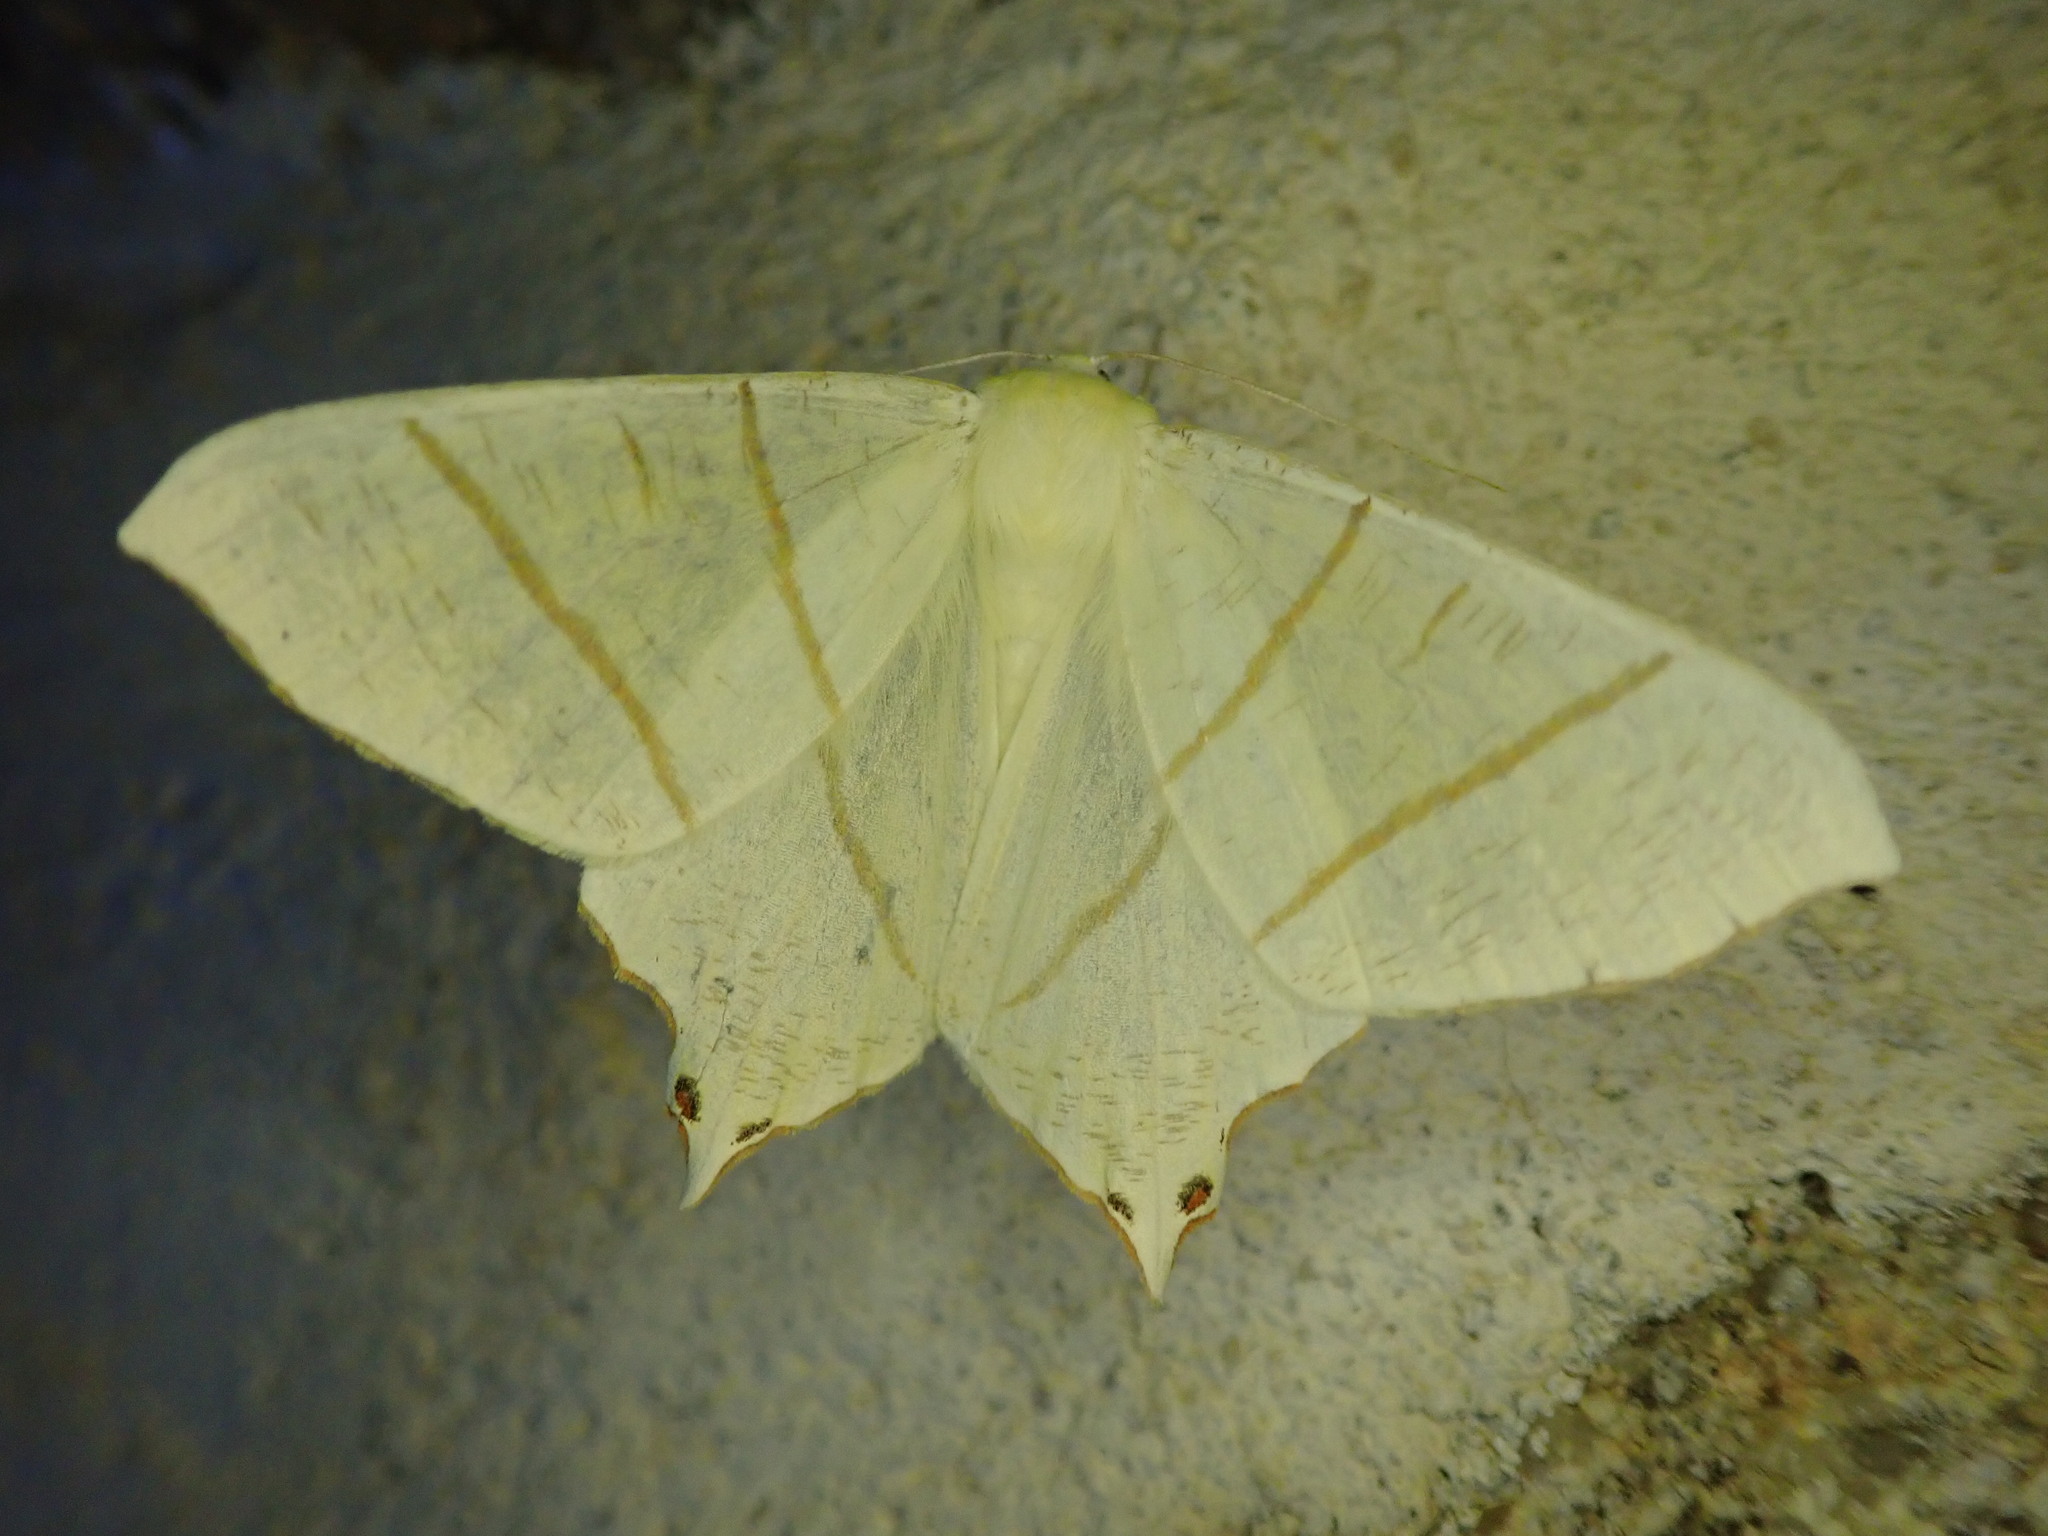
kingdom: Animalia
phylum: Arthropoda
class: Insecta
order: Lepidoptera
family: Geometridae
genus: Ourapteryx
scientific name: Ourapteryx sambucaria
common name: Swallow-tailed moth
